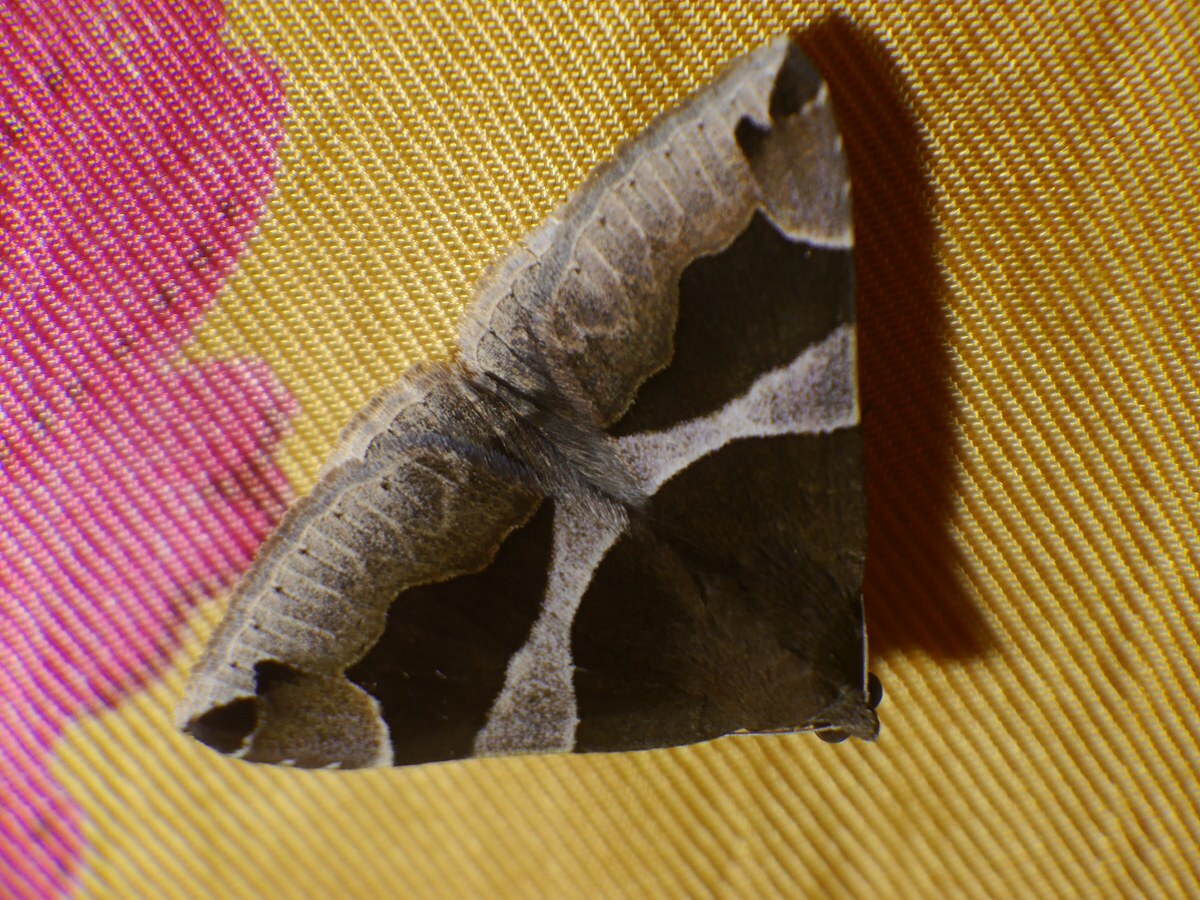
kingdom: Animalia
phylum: Arthropoda
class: Insecta
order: Lepidoptera
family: Erebidae
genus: Dysgonia
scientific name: Dysgonia algira
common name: Passenger
